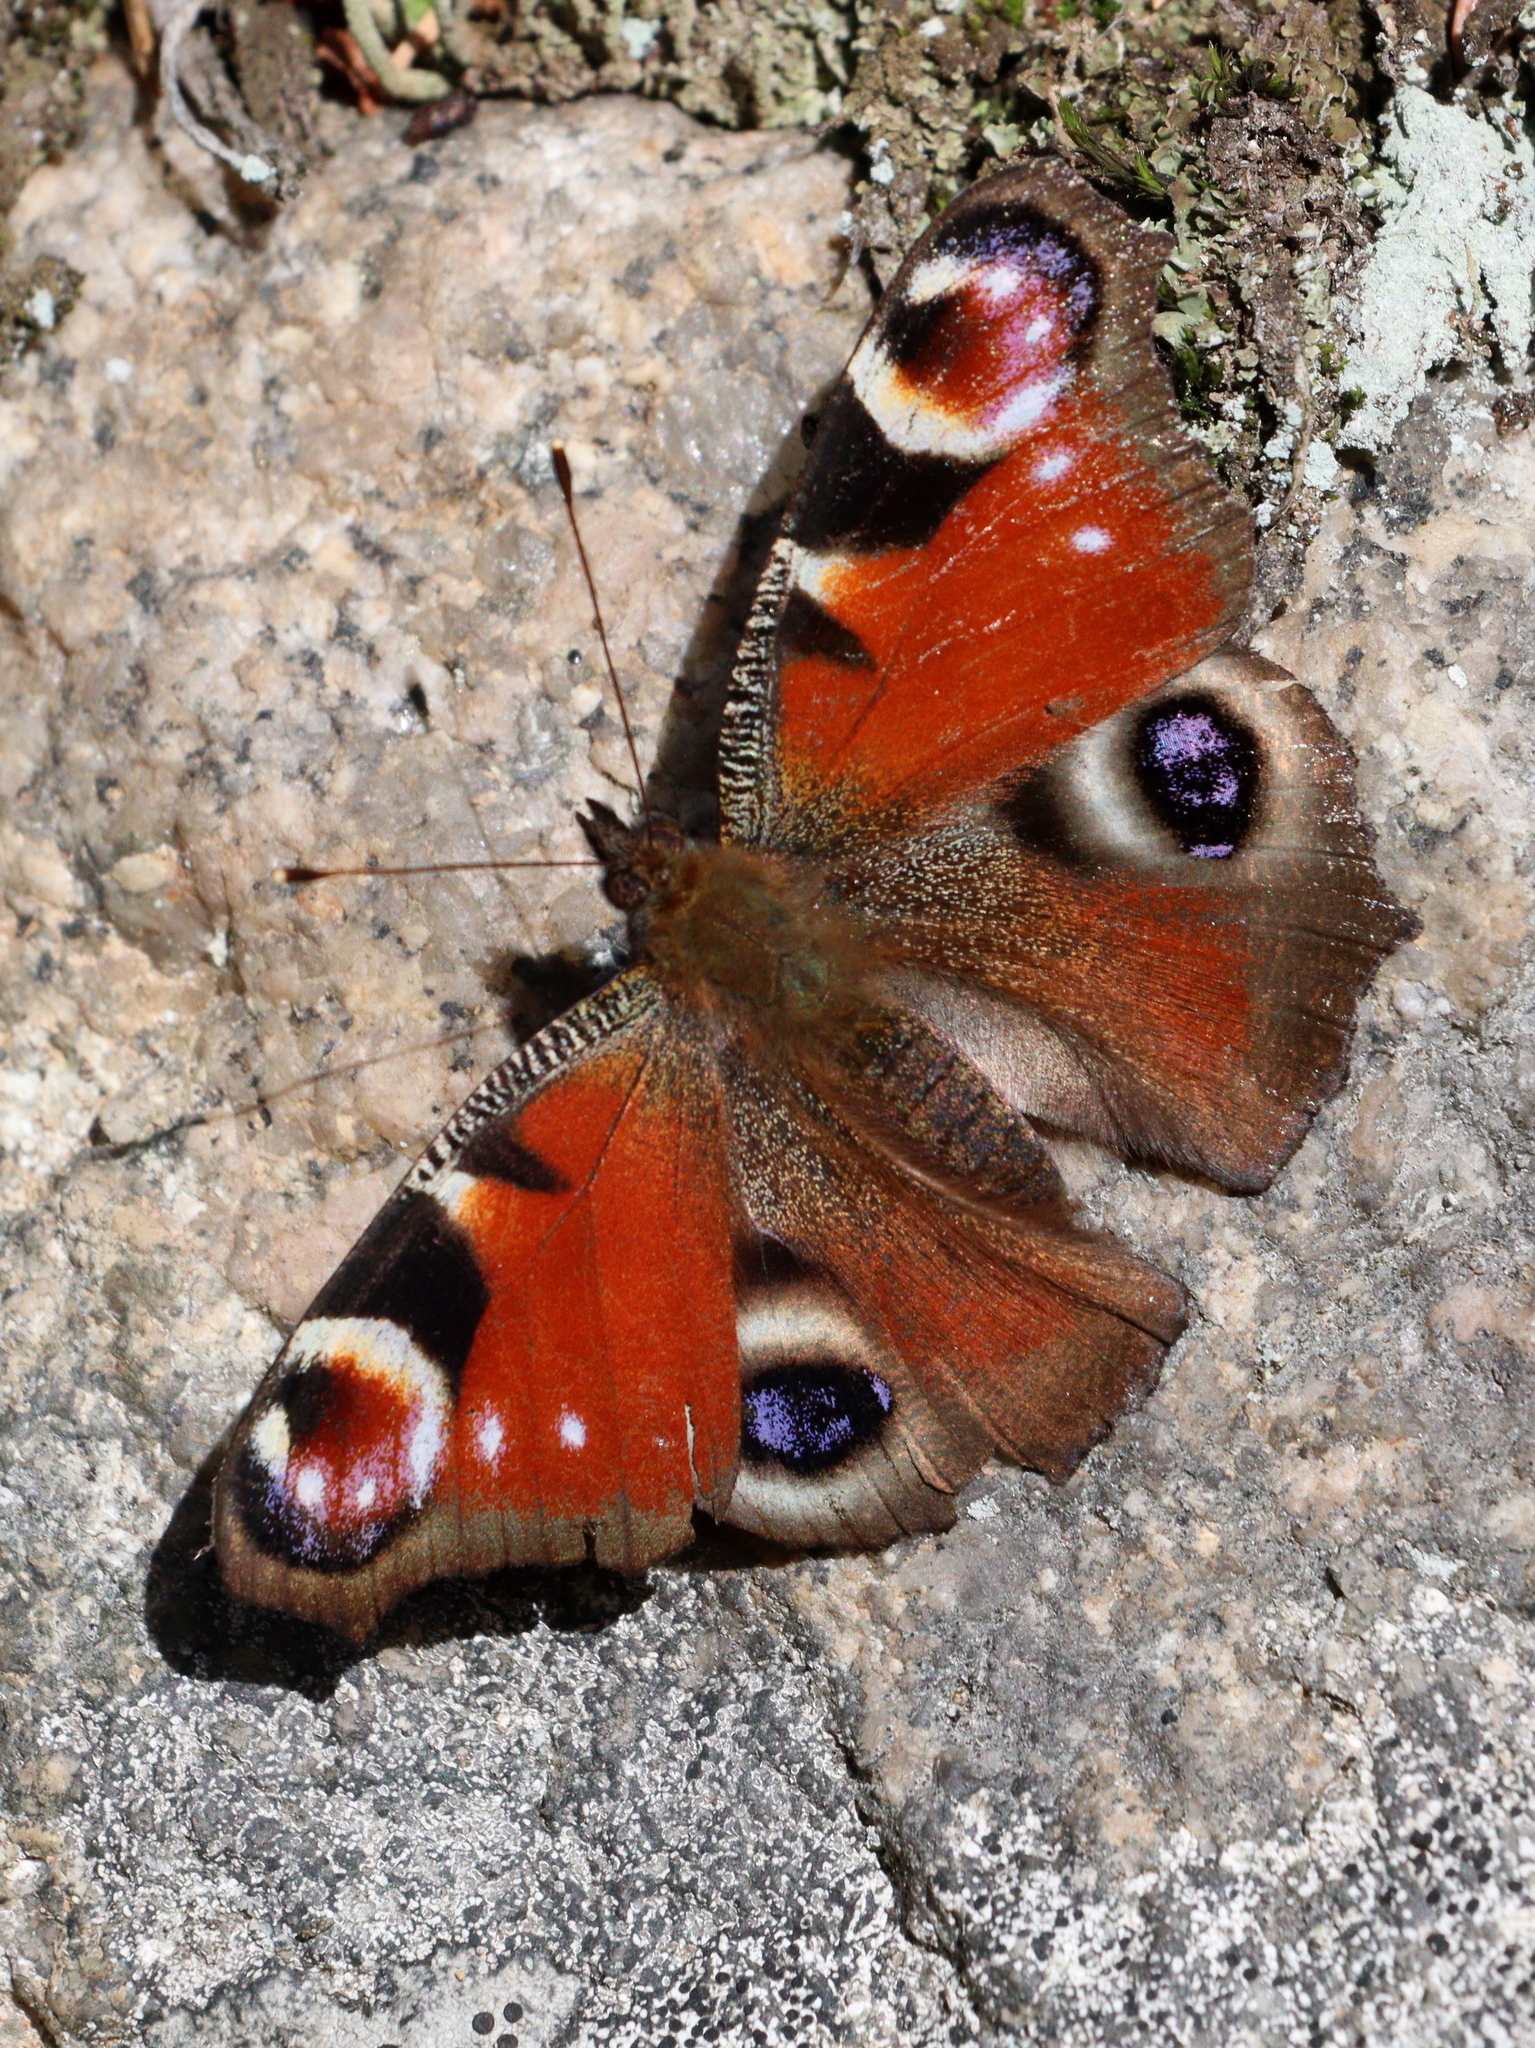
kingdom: Animalia
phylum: Arthropoda
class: Insecta
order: Lepidoptera
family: Nymphalidae
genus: Aglais
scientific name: Aglais io
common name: Peacock
